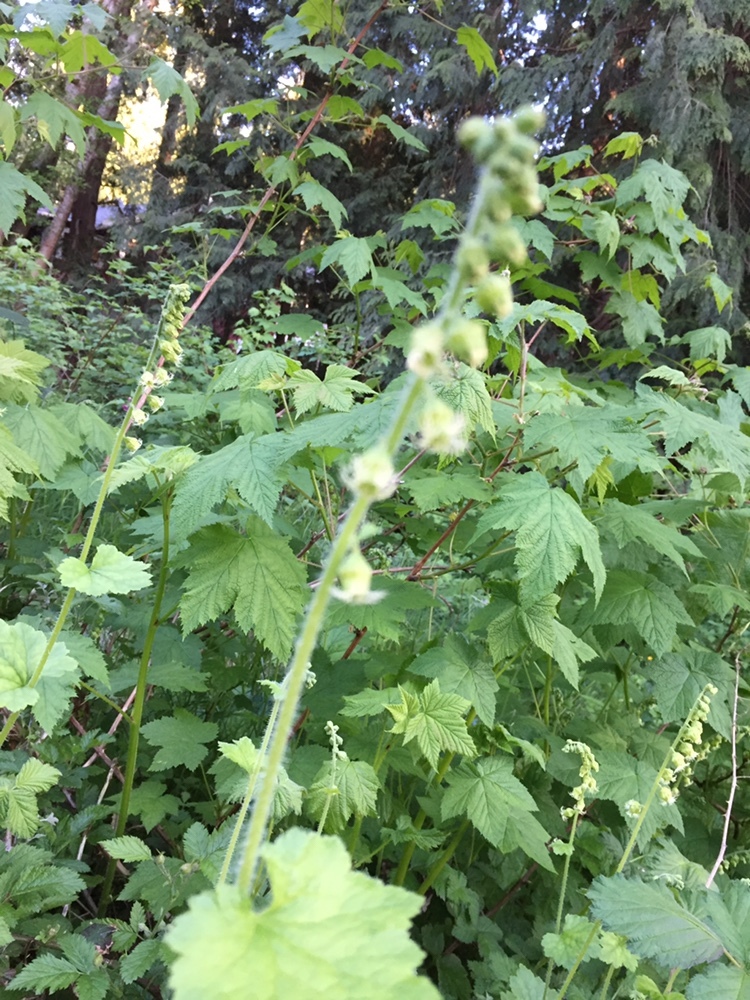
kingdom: Plantae
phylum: Tracheophyta
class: Magnoliopsida
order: Saxifragales
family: Saxifragaceae
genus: Tellima
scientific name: Tellima grandiflora
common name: Fringecups
